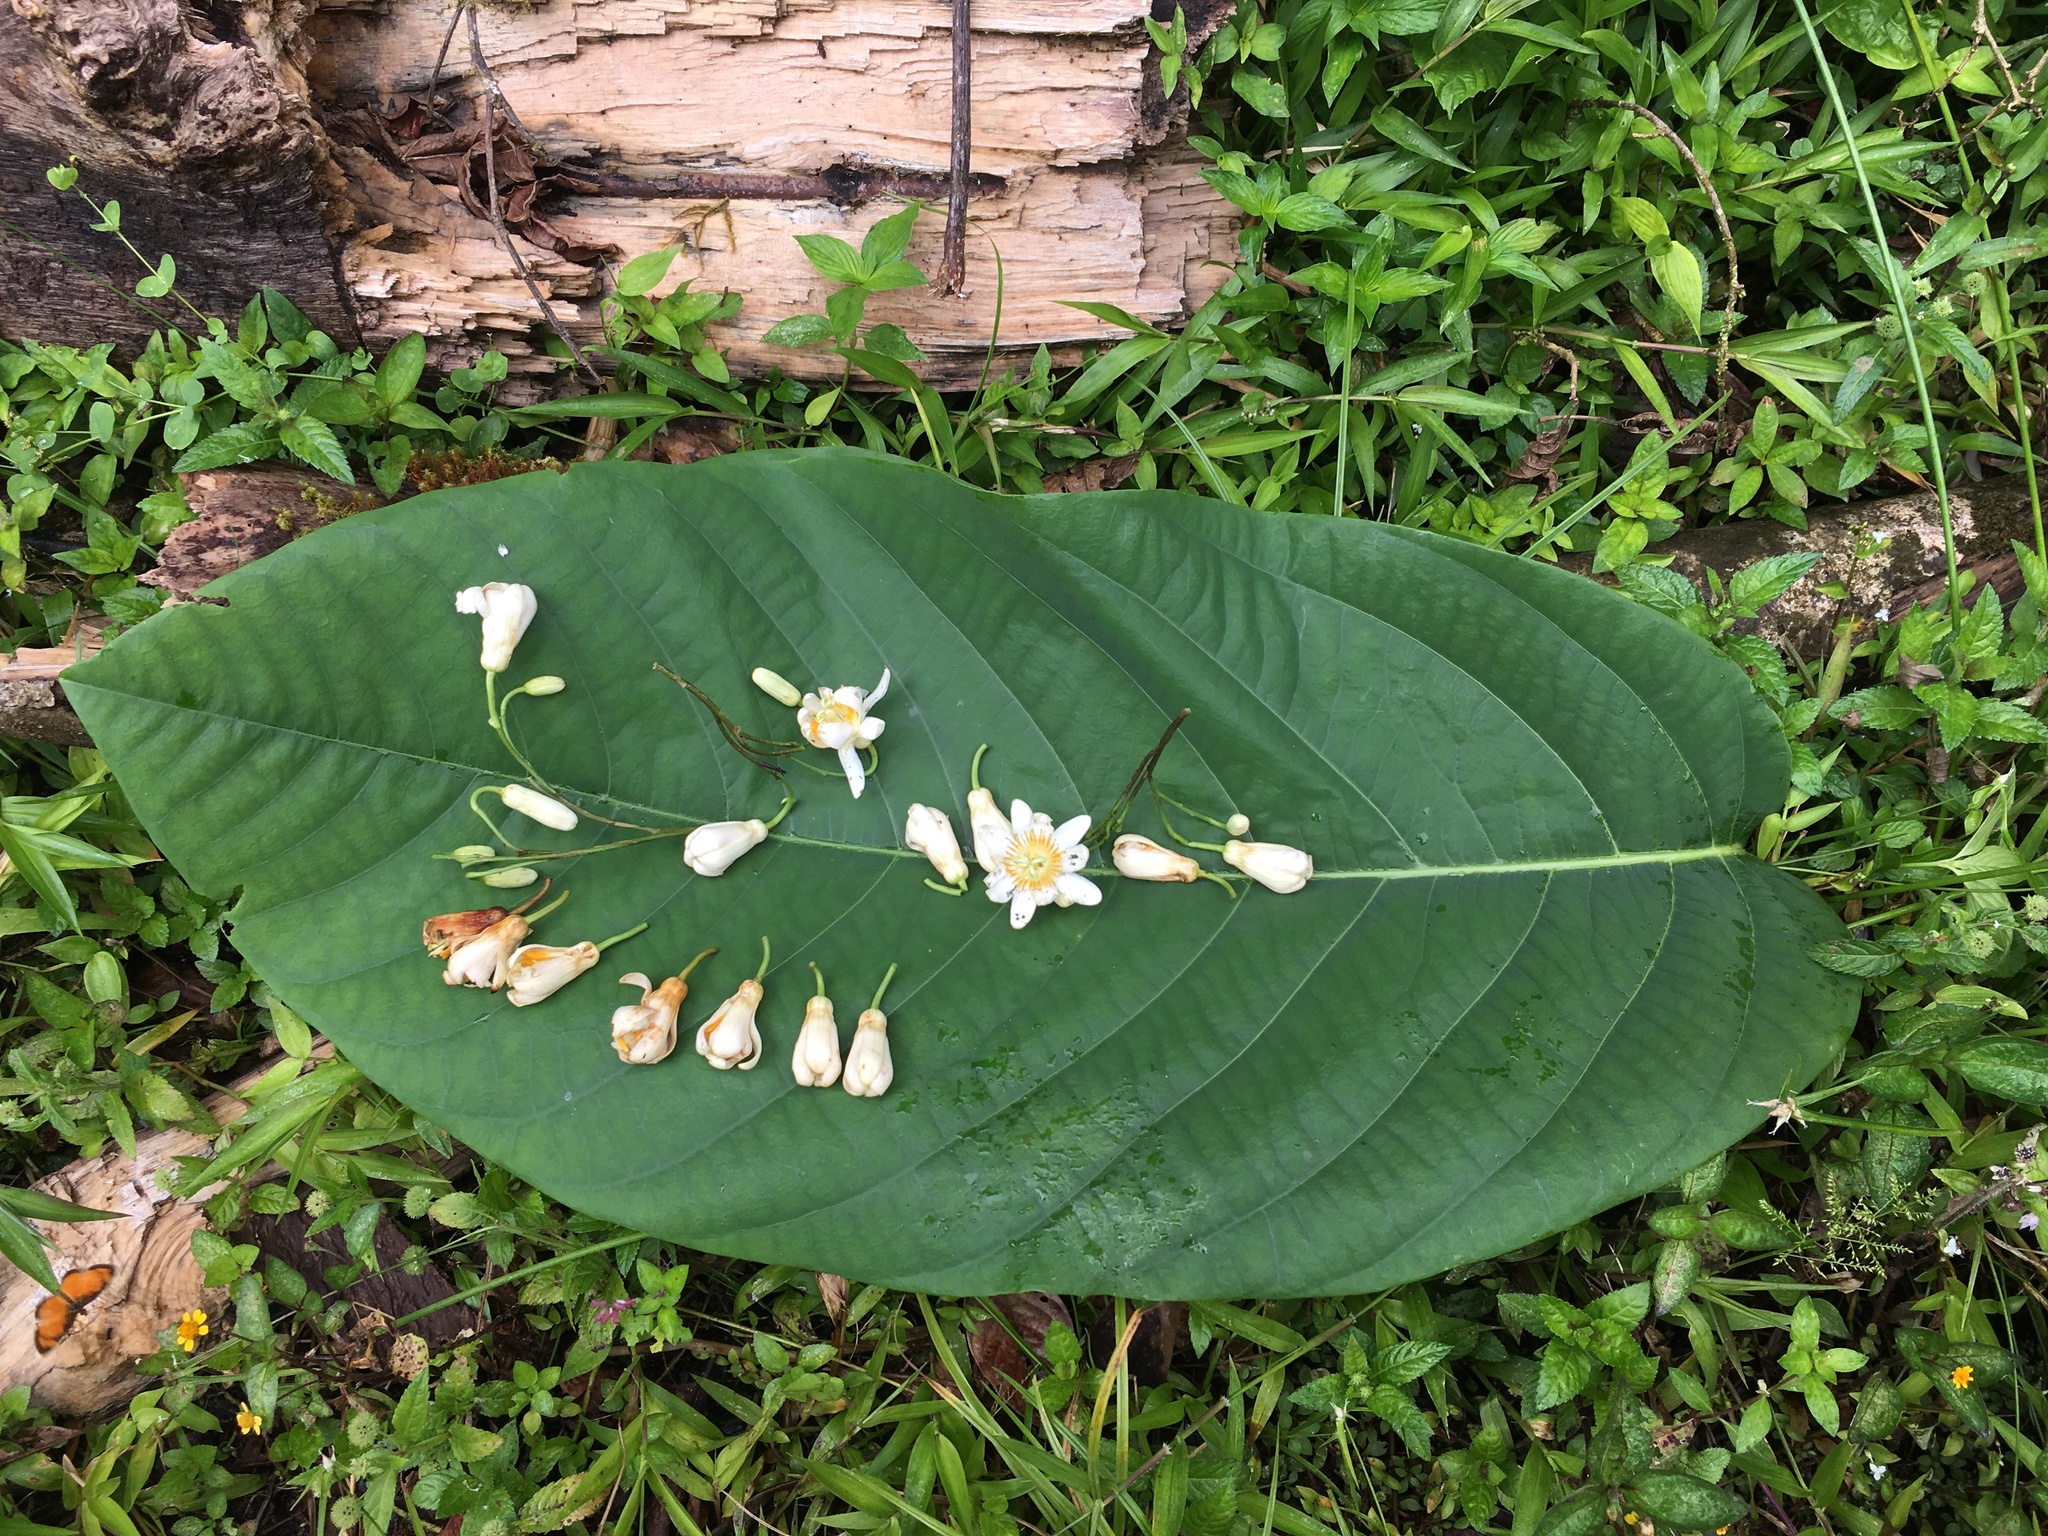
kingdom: Plantae
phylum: Tracheophyta
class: Magnoliopsida
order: Malpighiales
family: Passifloraceae
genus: Passiflora
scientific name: Passiflora magnoliifolia
